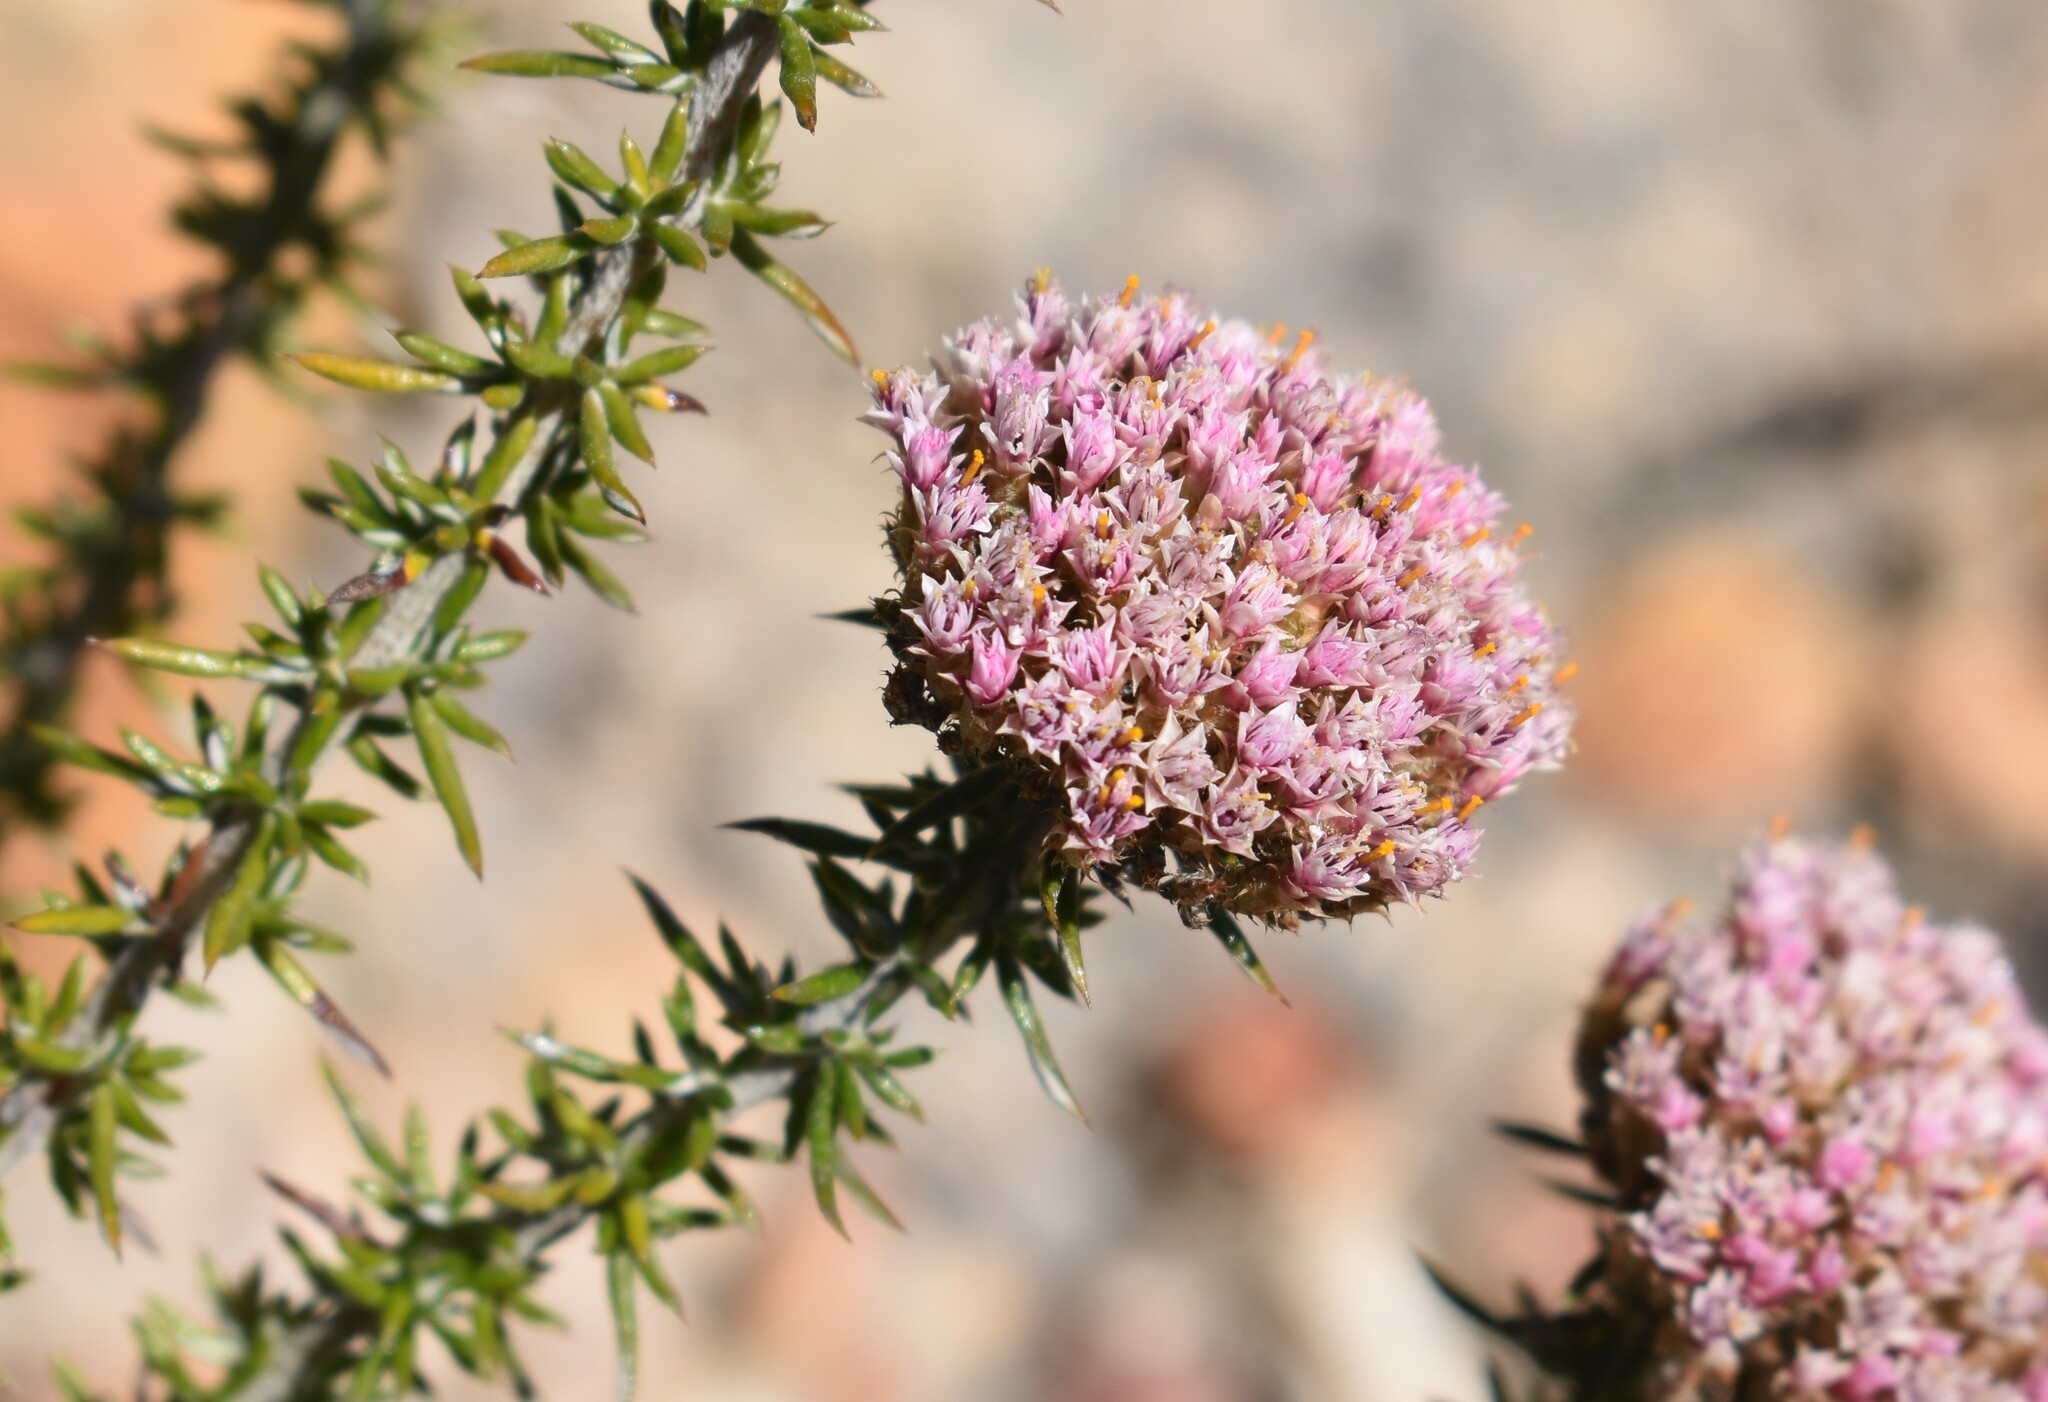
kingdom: Plantae
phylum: Tracheophyta
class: Magnoliopsida
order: Asterales
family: Asteraceae
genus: Metalasia
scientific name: Metalasia massonii
